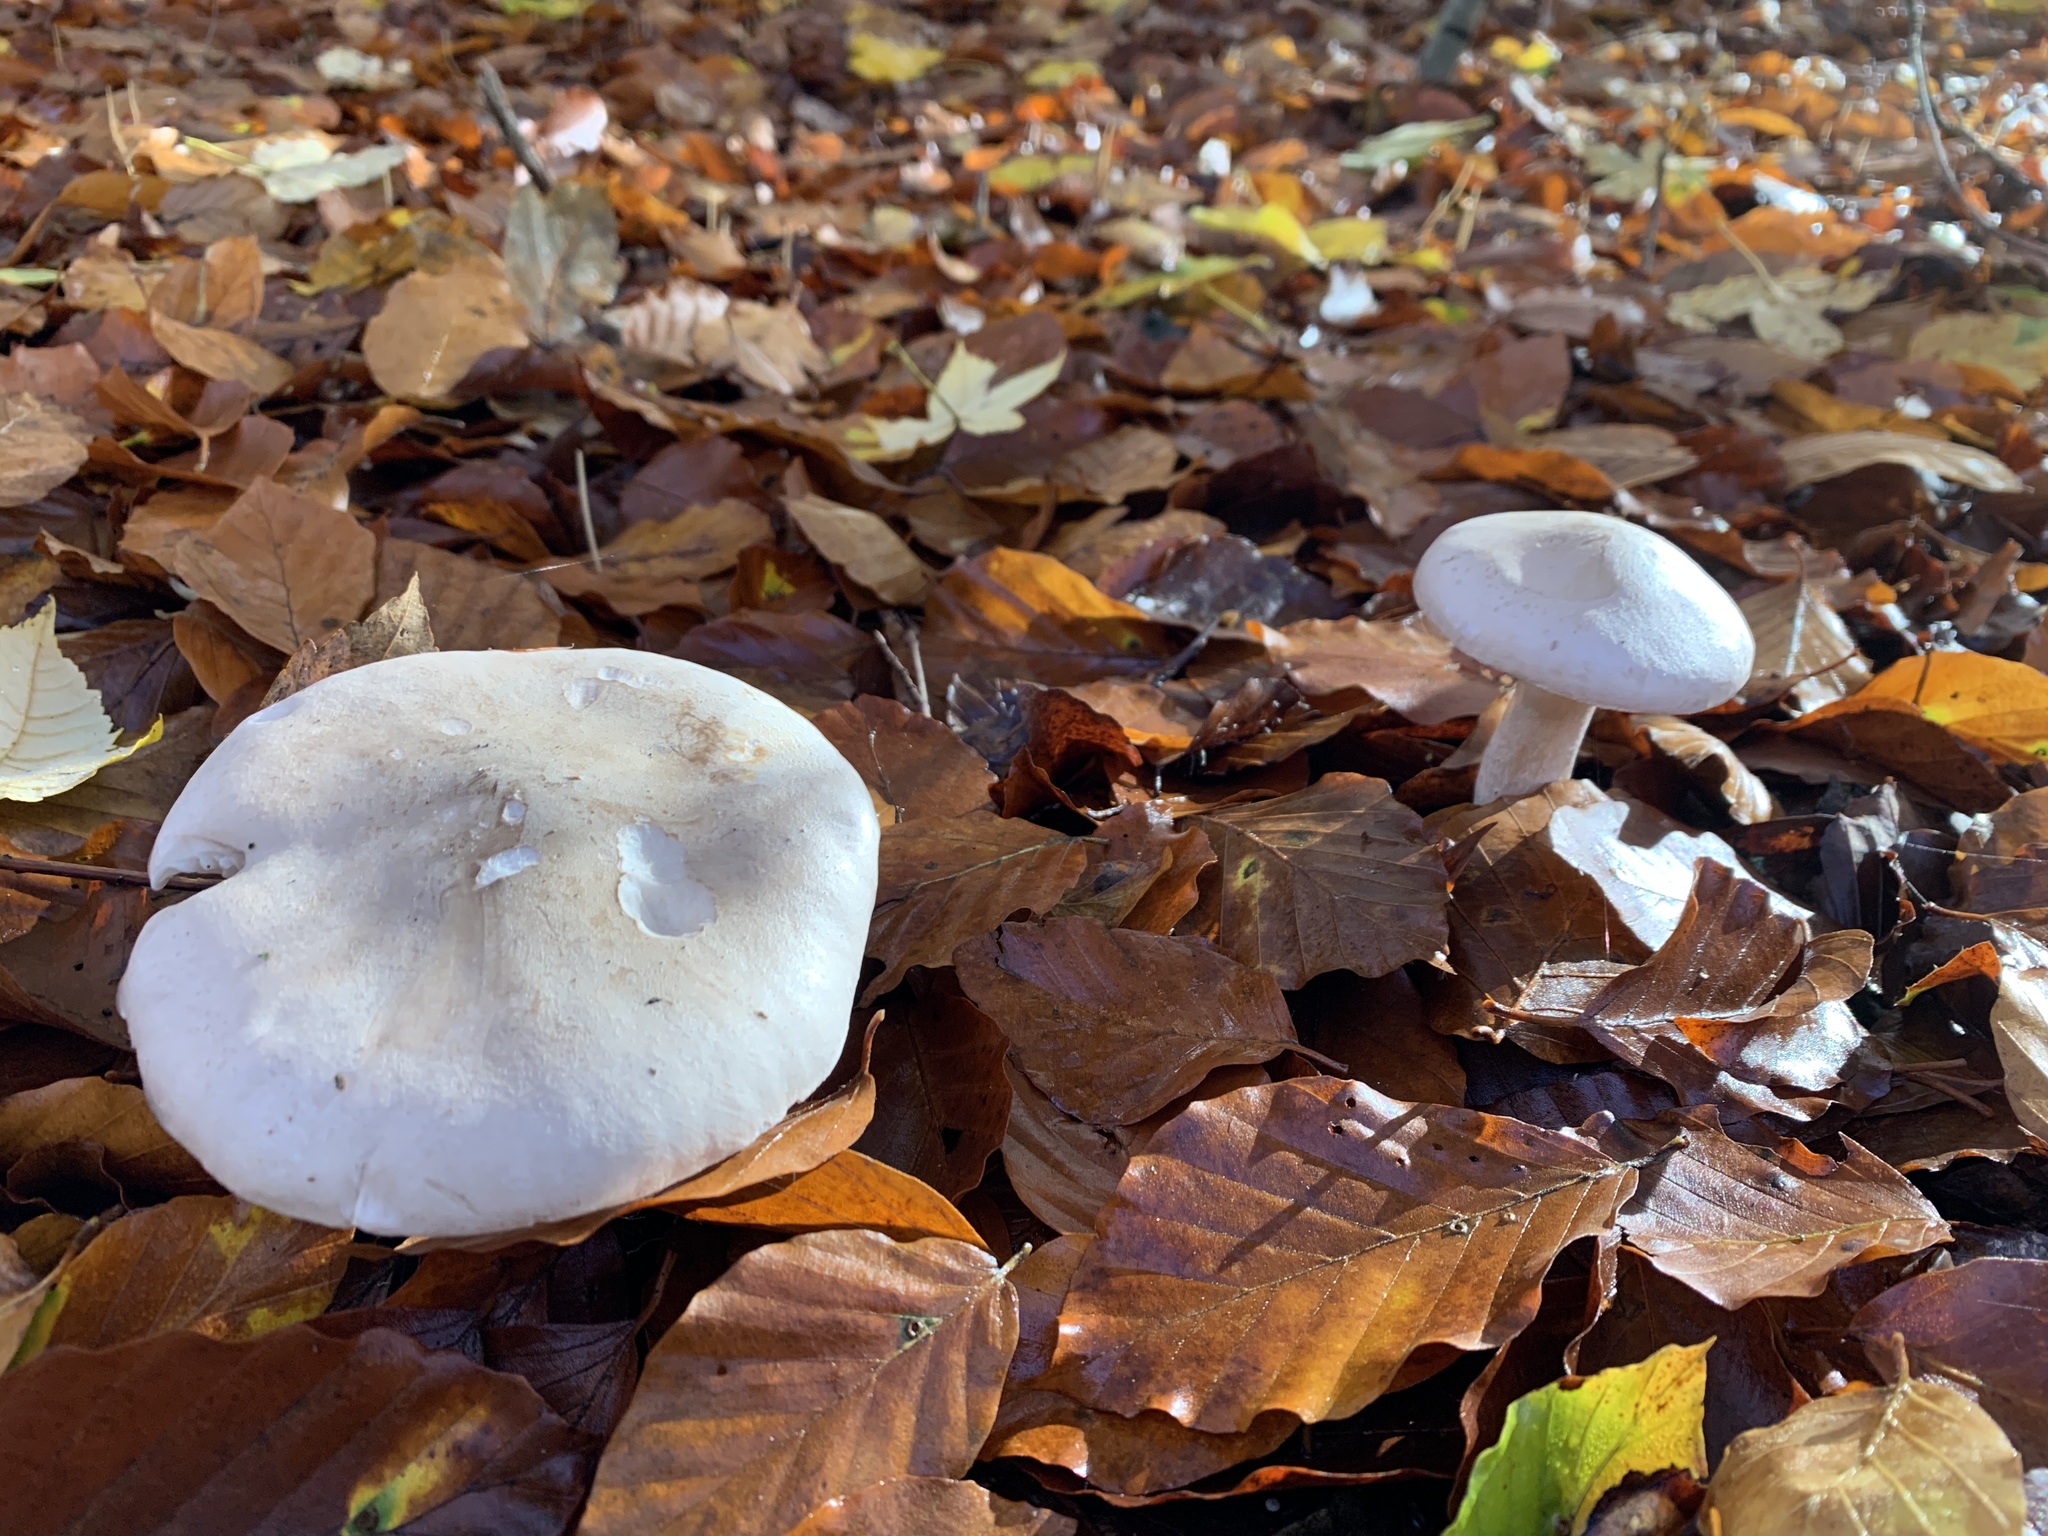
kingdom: Fungi
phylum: Basidiomycota
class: Agaricomycetes
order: Agaricales
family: Tricholomataceae
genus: Clitocybe
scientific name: Clitocybe nebularis
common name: Clouded agaric
